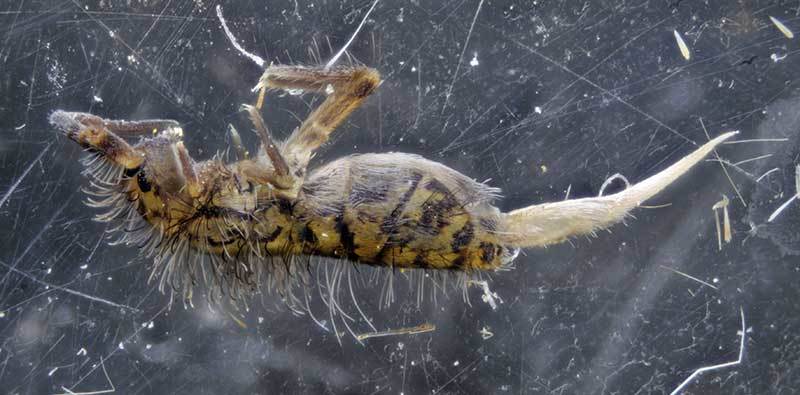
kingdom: Animalia
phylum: Arthropoda
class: Collembola
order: Entomobryomorpha
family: Orchesellidae
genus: Orchesella
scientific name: Orchesella villosa
